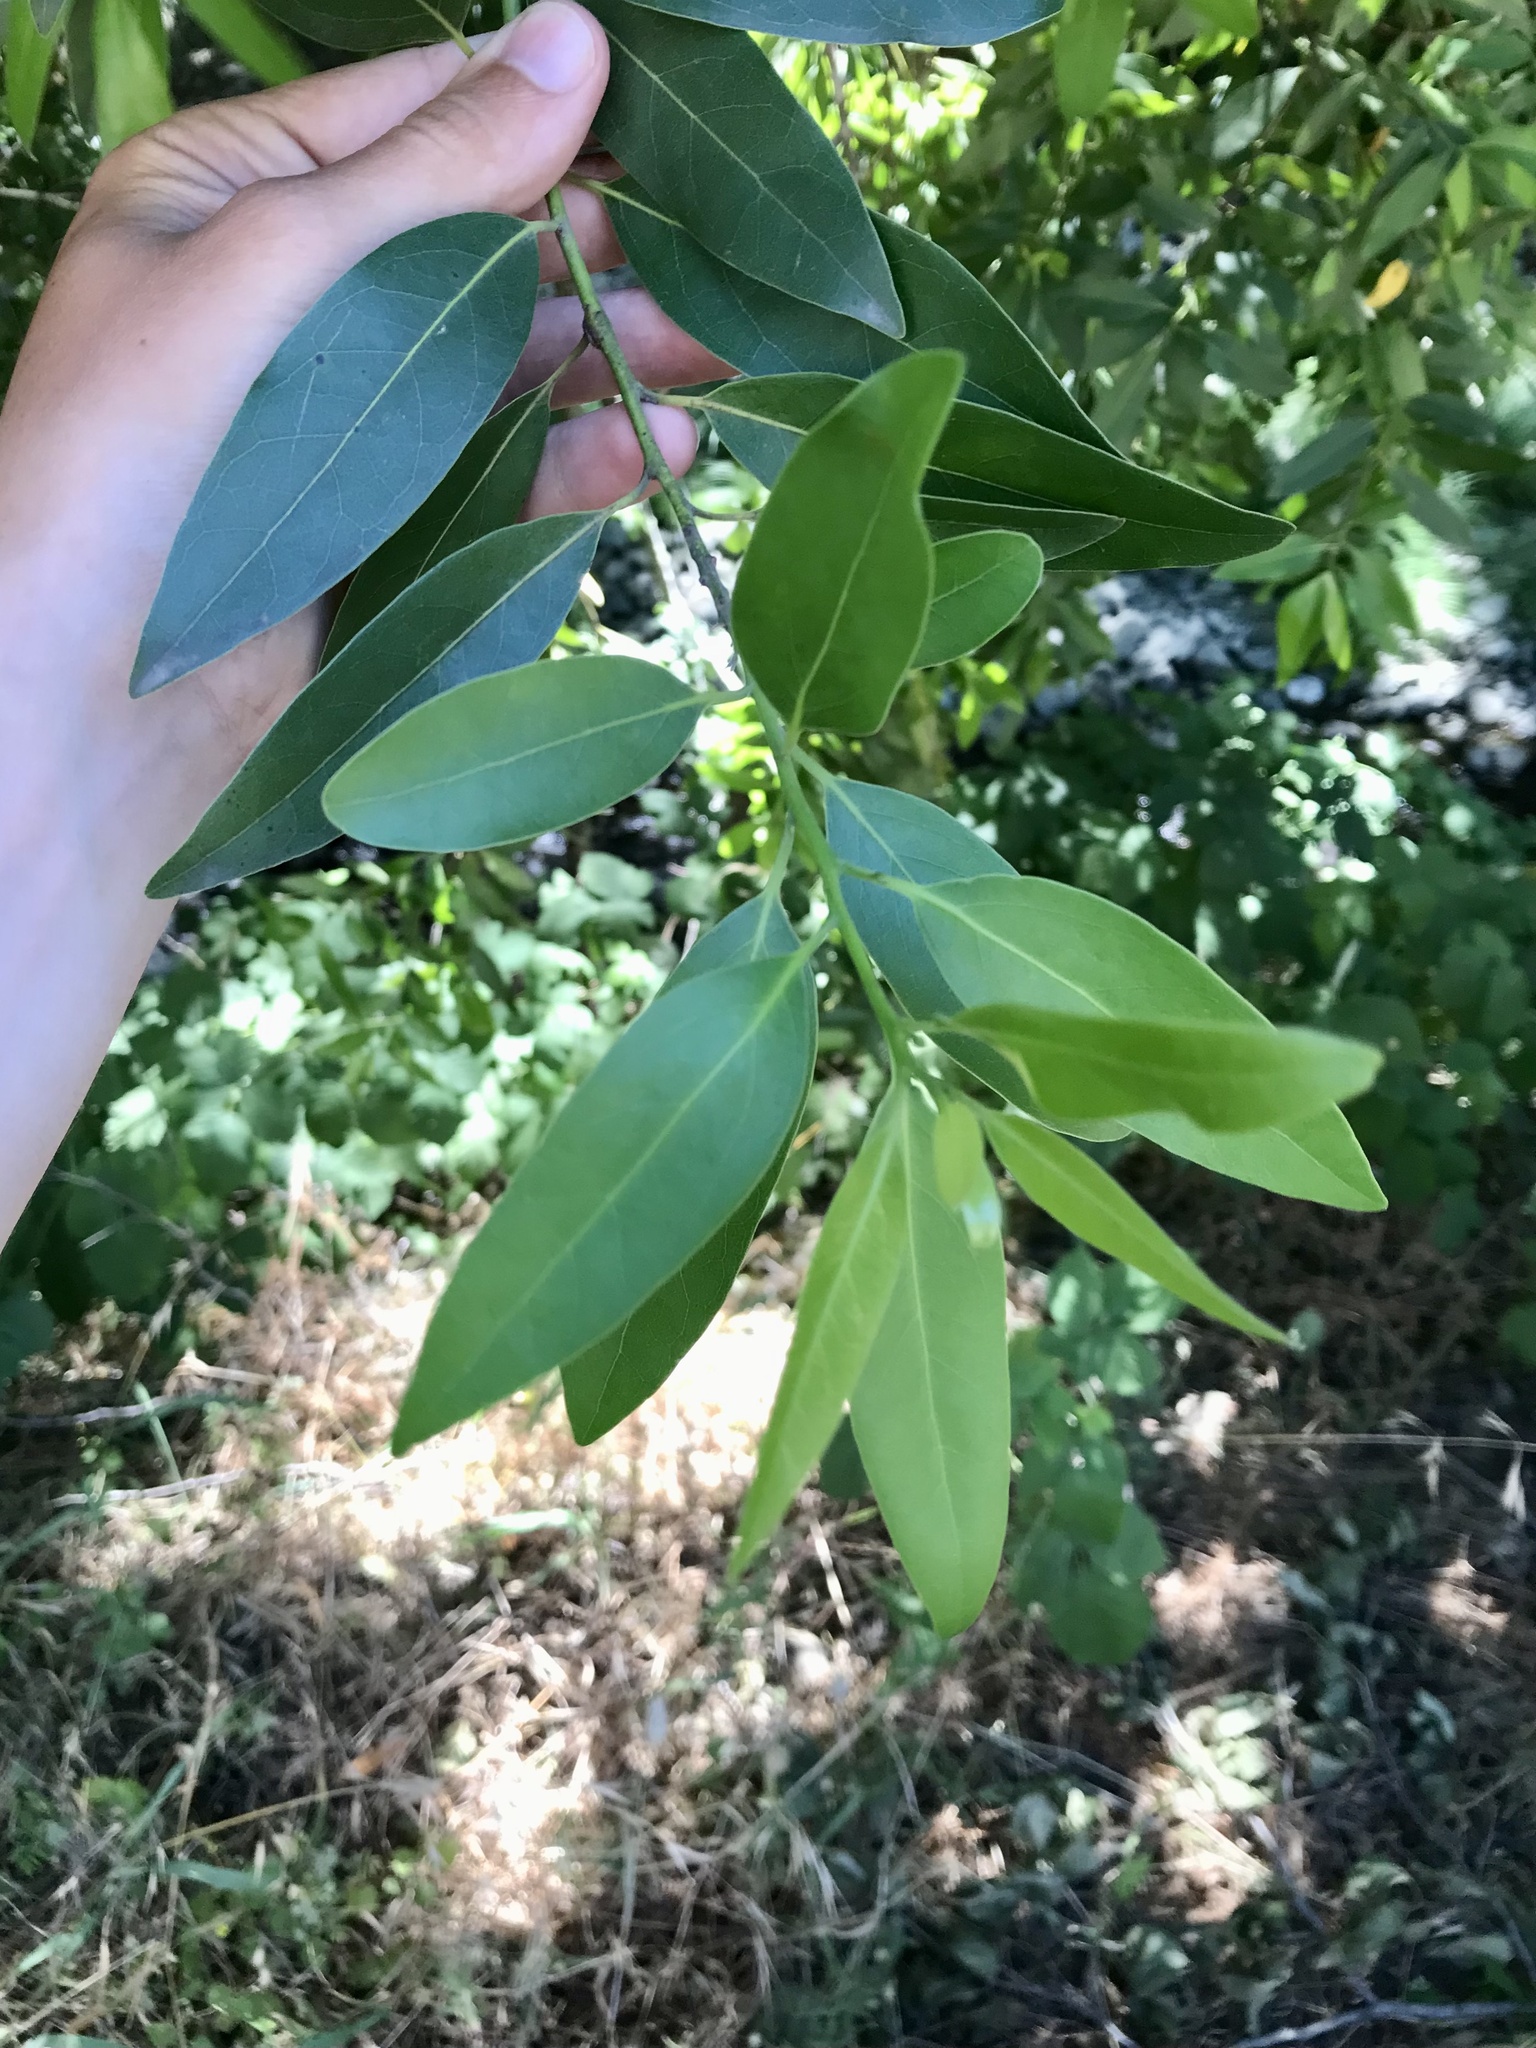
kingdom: Plantae
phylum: Tracheophyta
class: Magnoliopsida
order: Laurales
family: Lauraceae
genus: Umbellularia
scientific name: Umbellularia californica
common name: California bay
